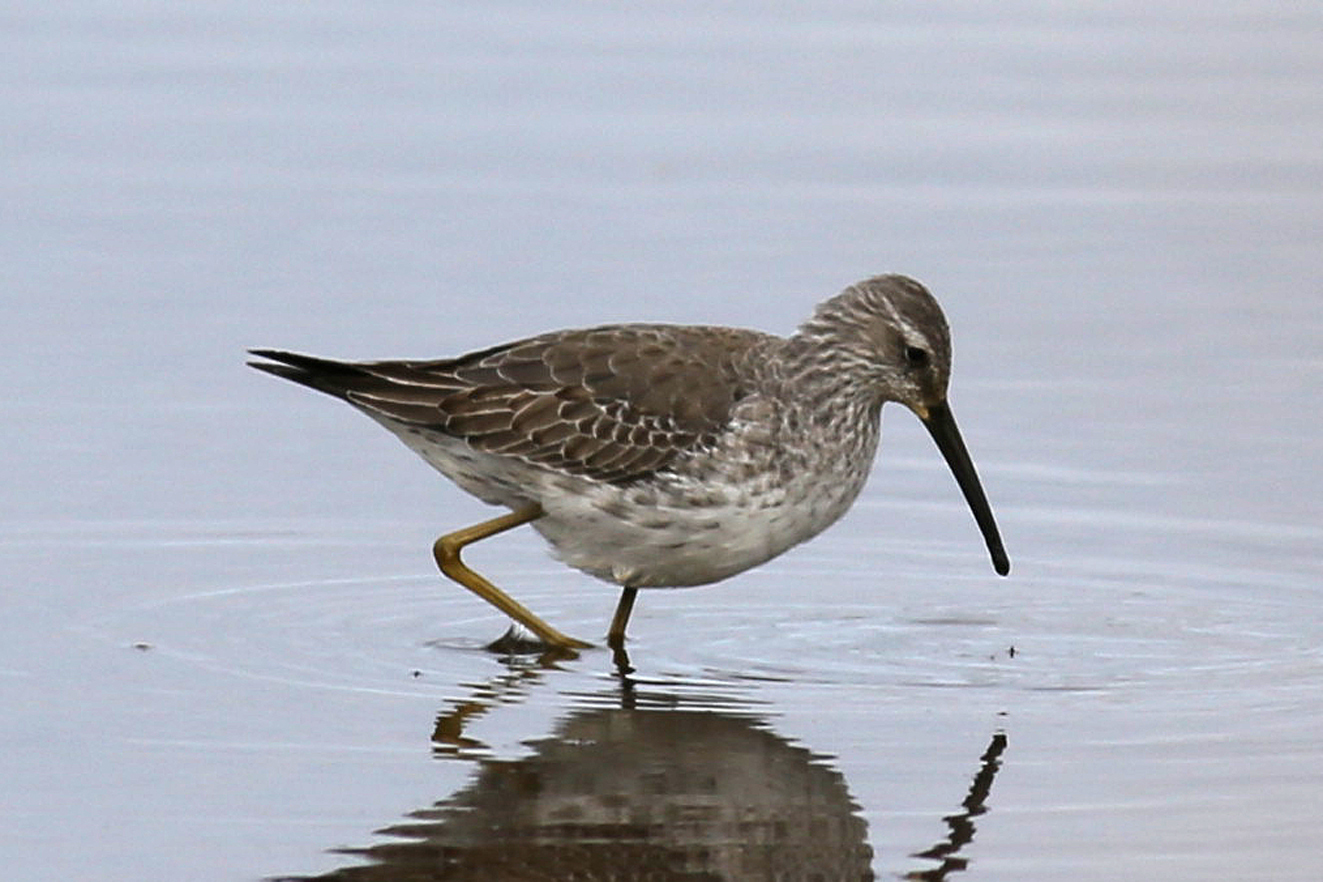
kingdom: Animalia
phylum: Chordata
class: Aves
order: Charadriiformes
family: Scolopacidae
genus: Calidris
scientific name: Calidris himantopus
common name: Stilt sandpiper
